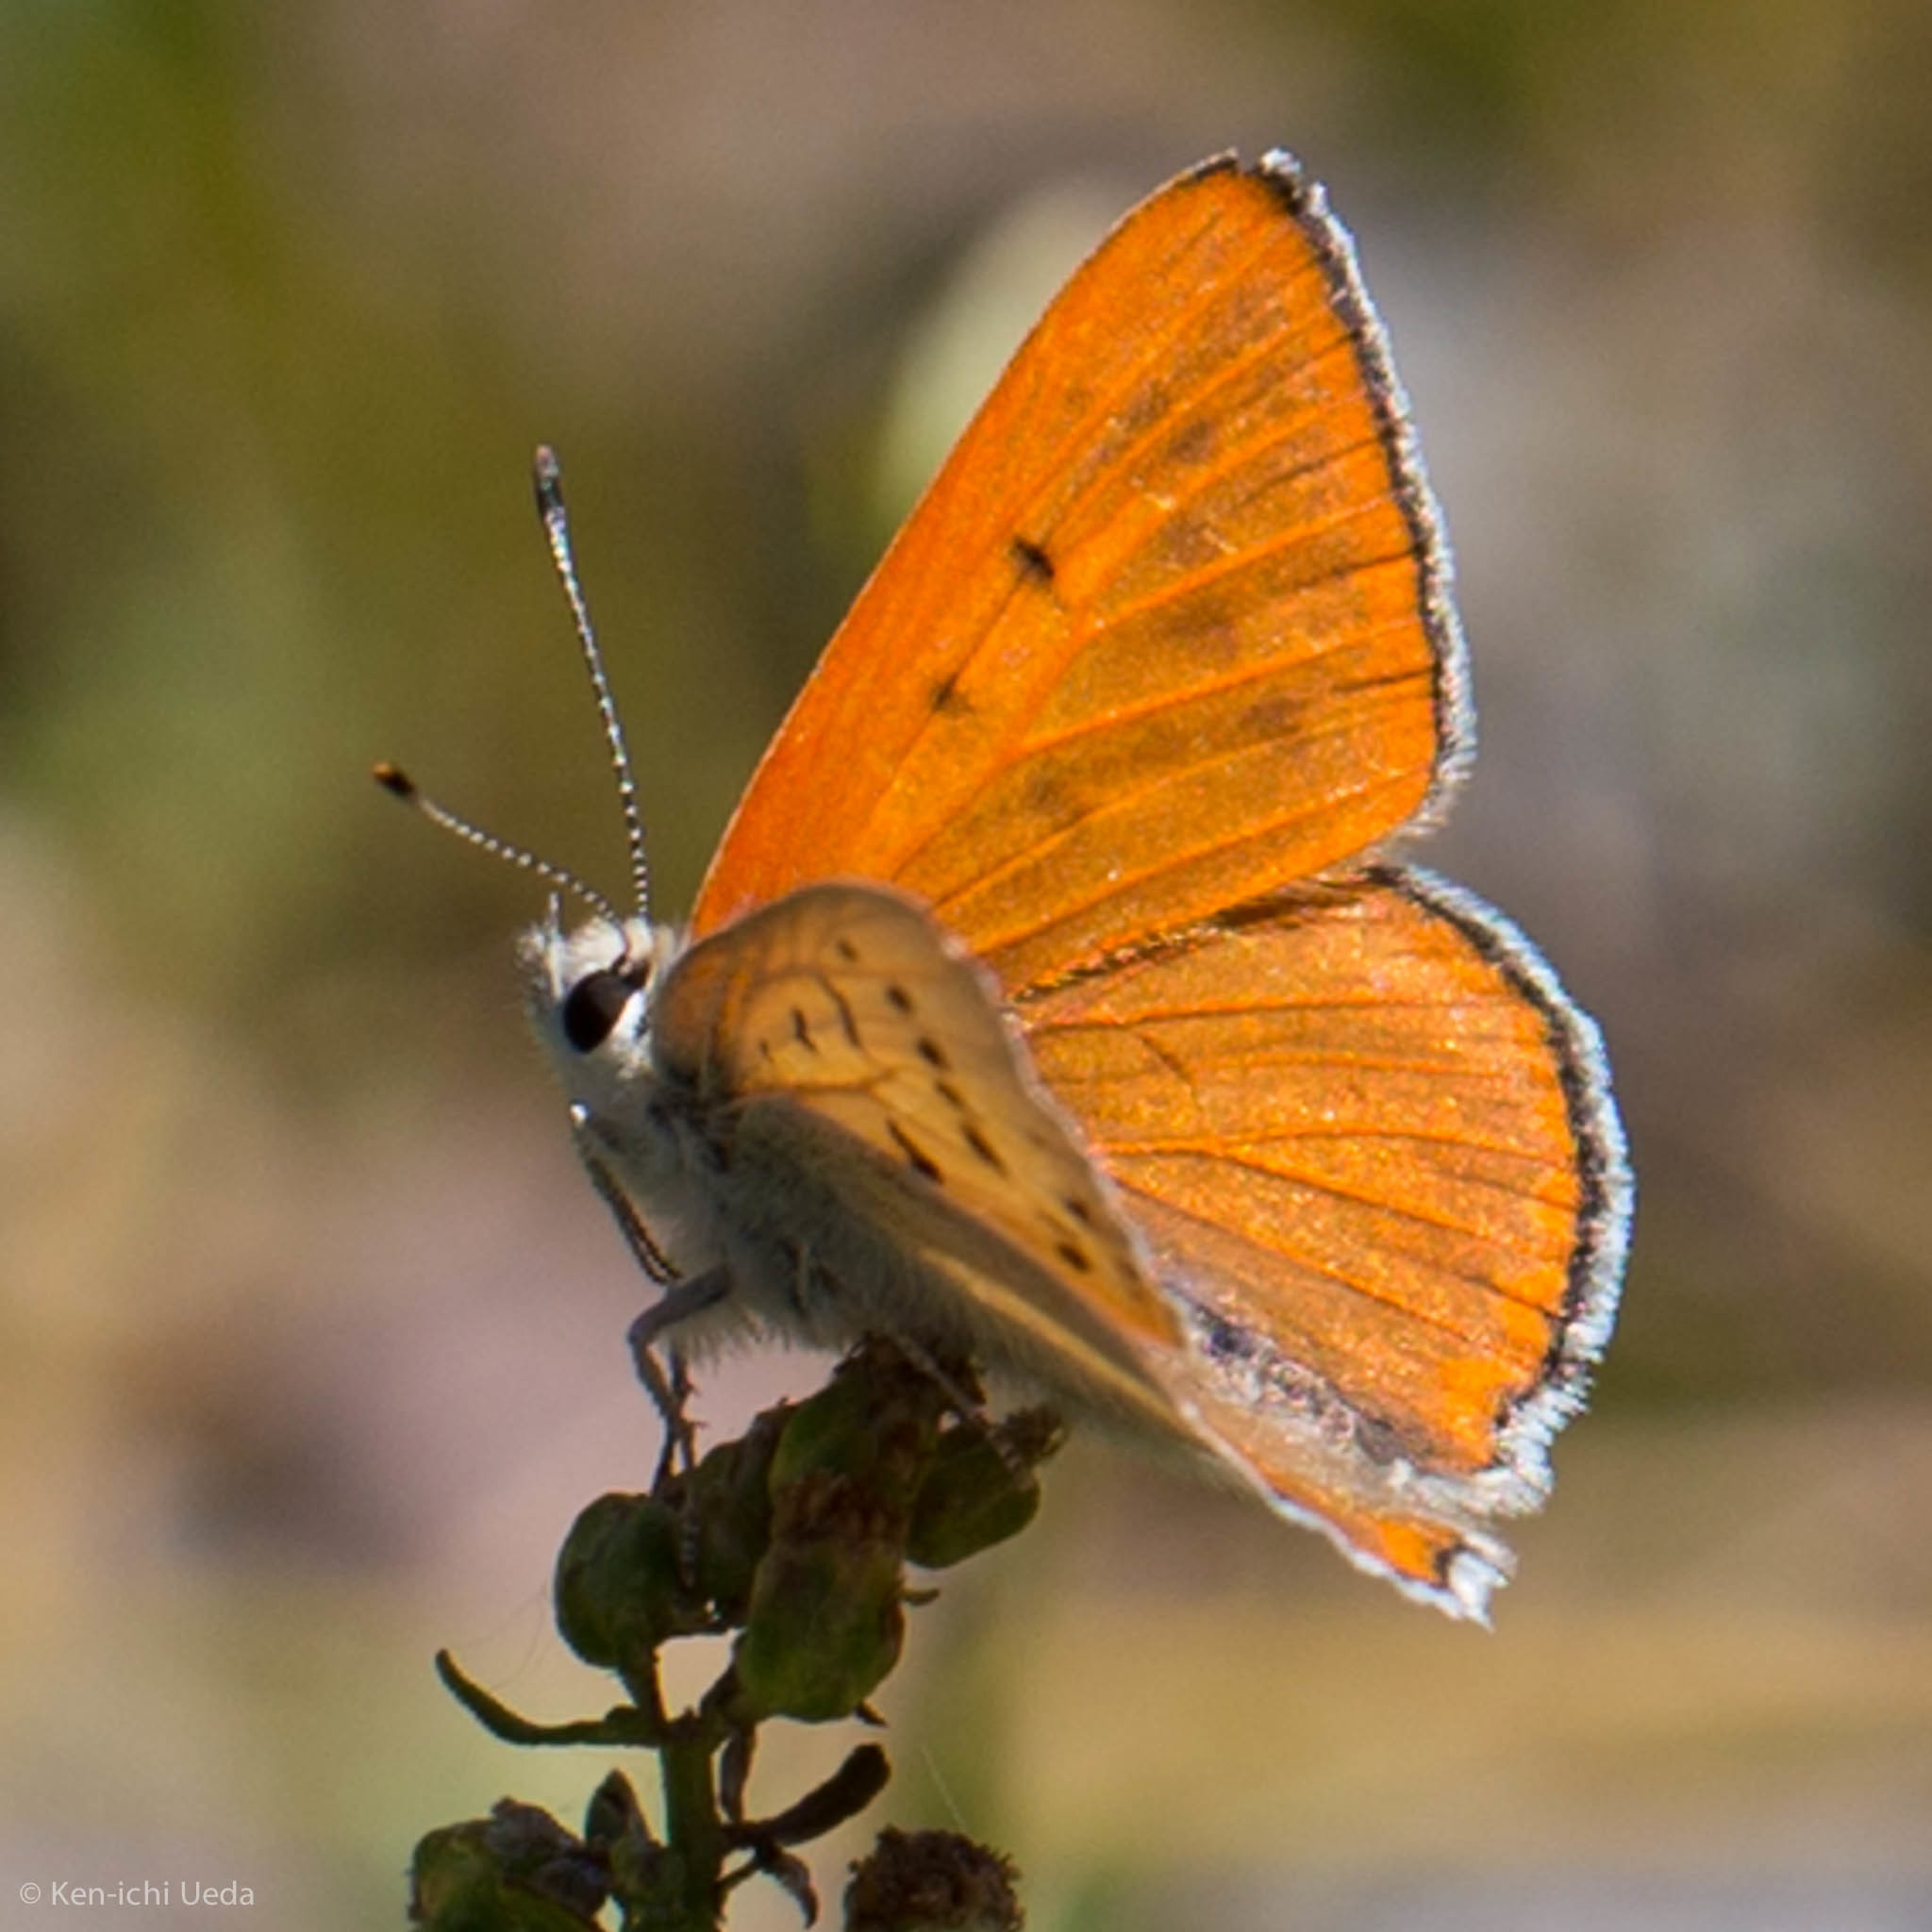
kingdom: Animalia
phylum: Arthropoda
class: Insecta
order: Lepidoptera
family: Lycaenidae
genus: Tharsalea
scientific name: Tharsalea rubidus
